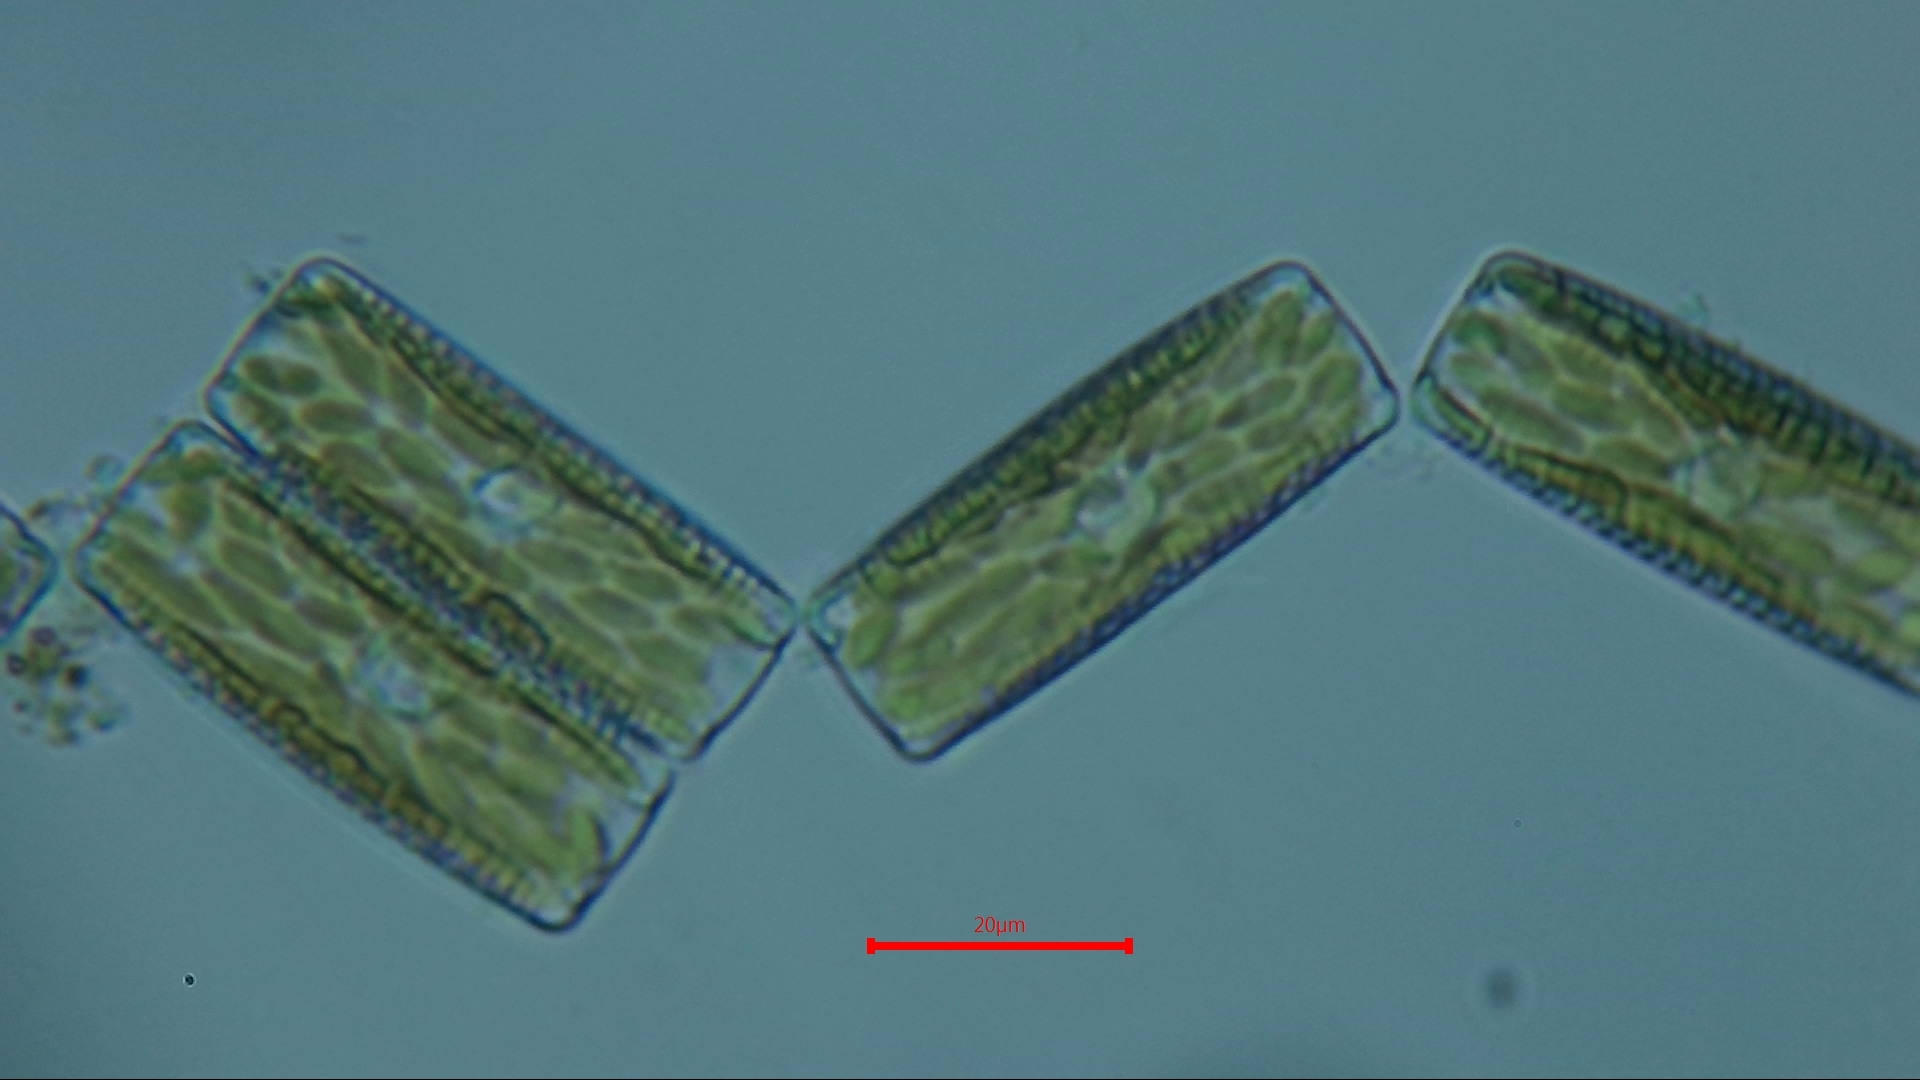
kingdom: Chromista
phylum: Ochrophyta
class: Bacillariophyceae
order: Fragilariales
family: Fragilariaceae
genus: Diatoma
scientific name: Diatoma vulgaris
